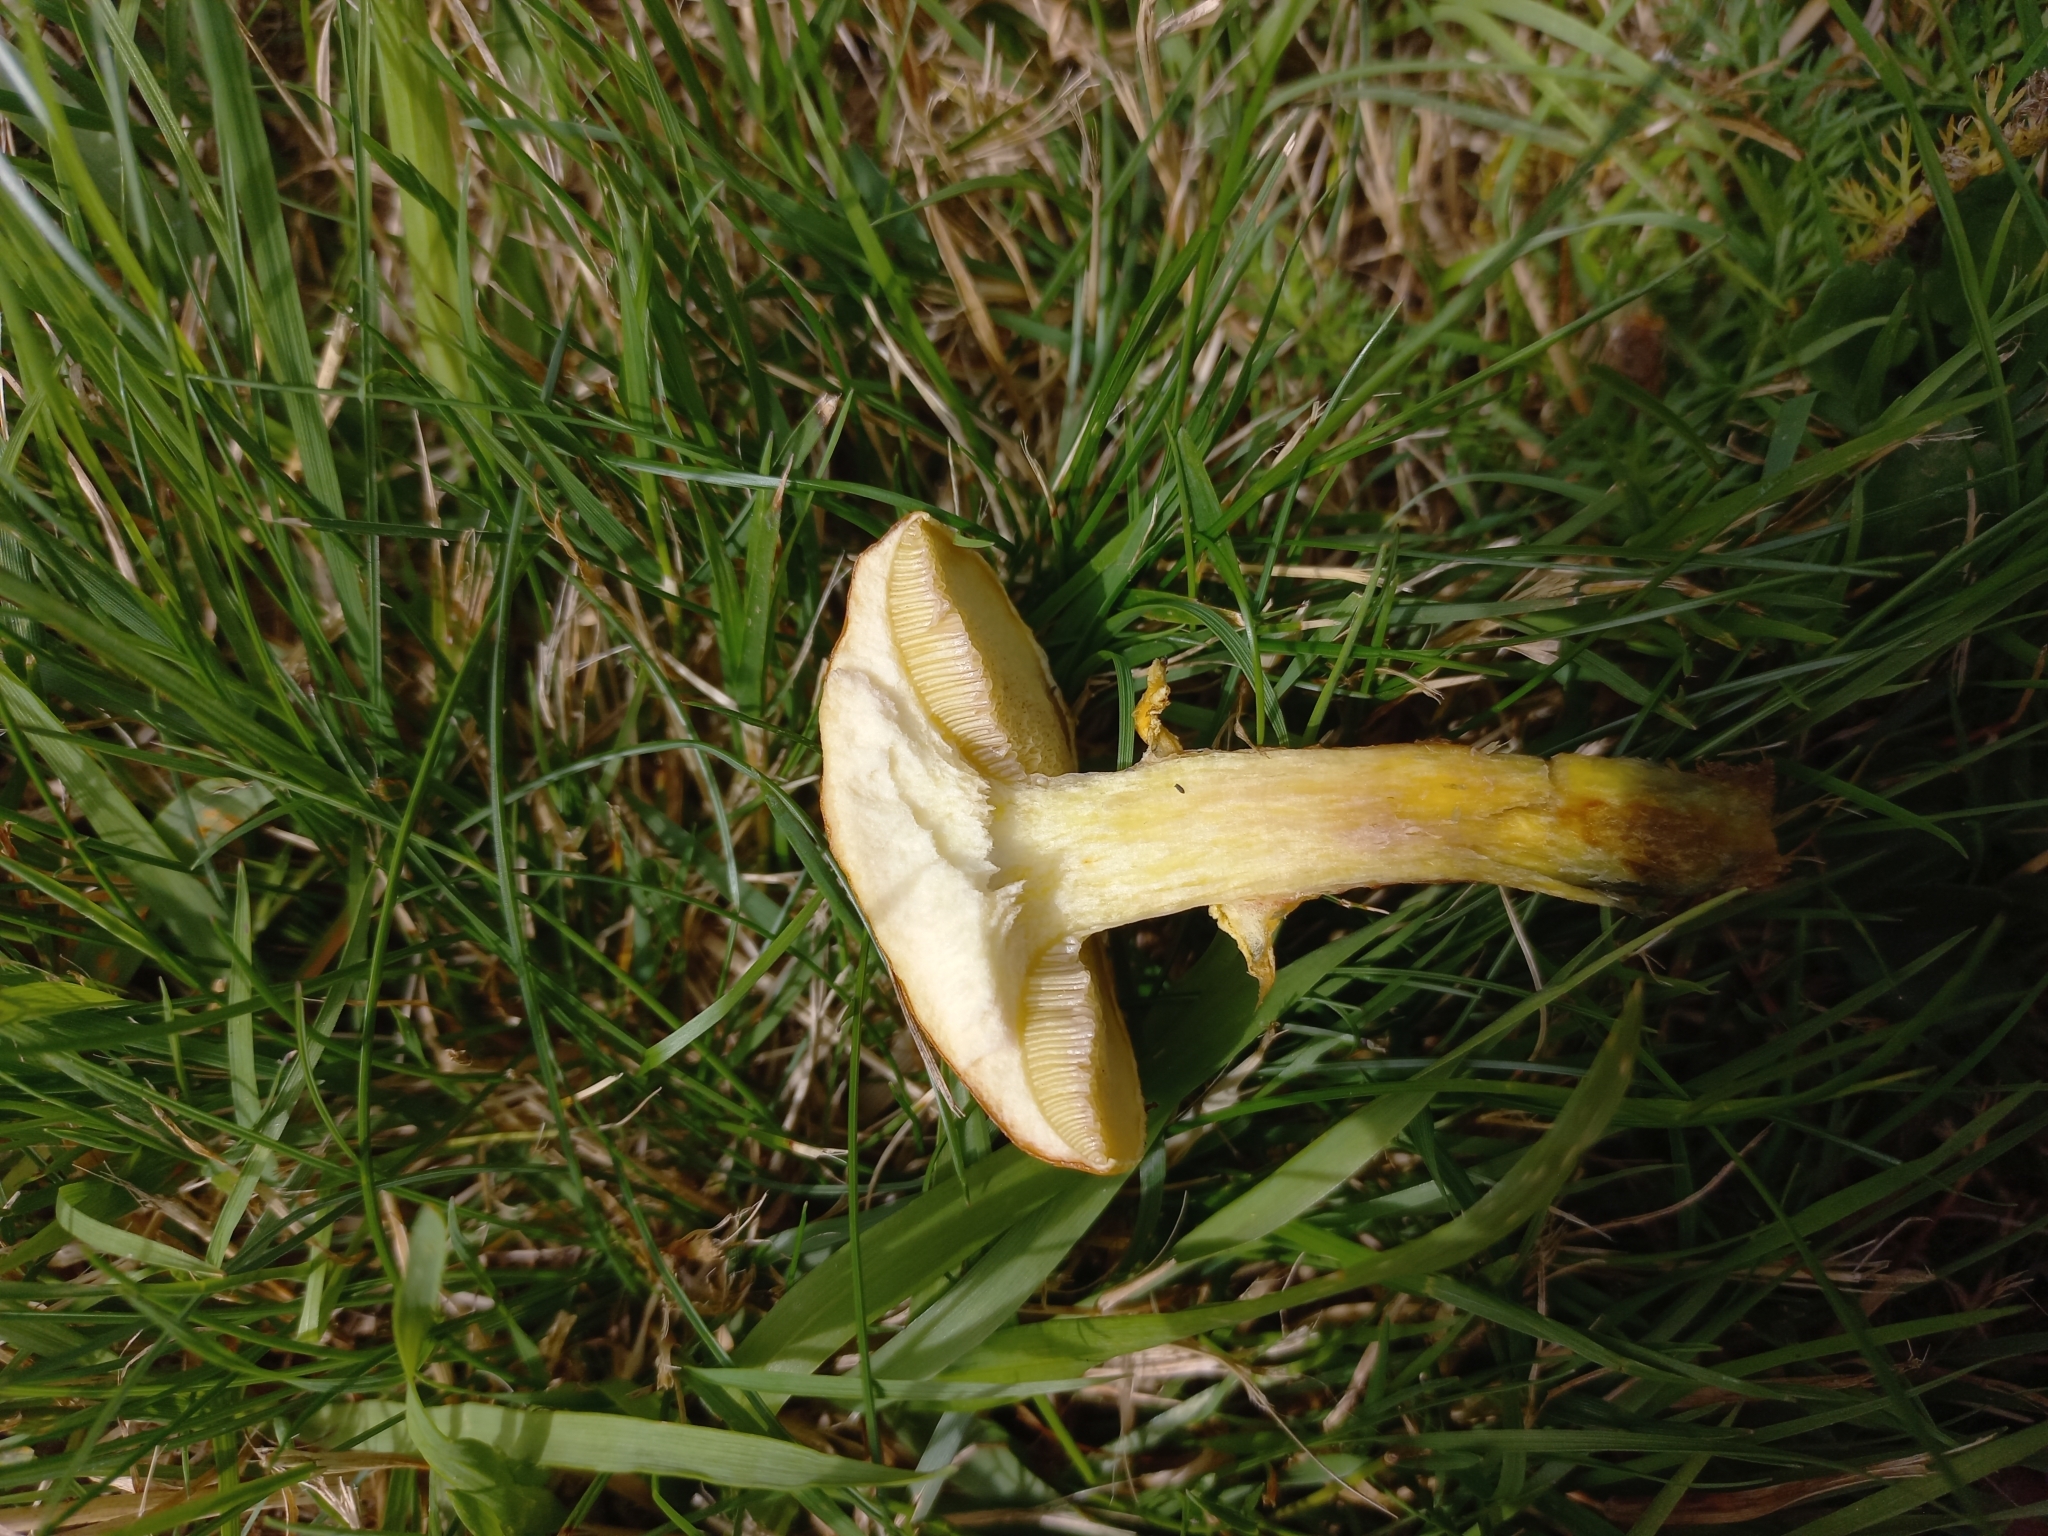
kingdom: Fungi
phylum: Basidiomycota
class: Agaricomycetes
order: Boletales
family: Suillaceae
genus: Suillus
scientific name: Suillus grevillei
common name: Larch bolete
